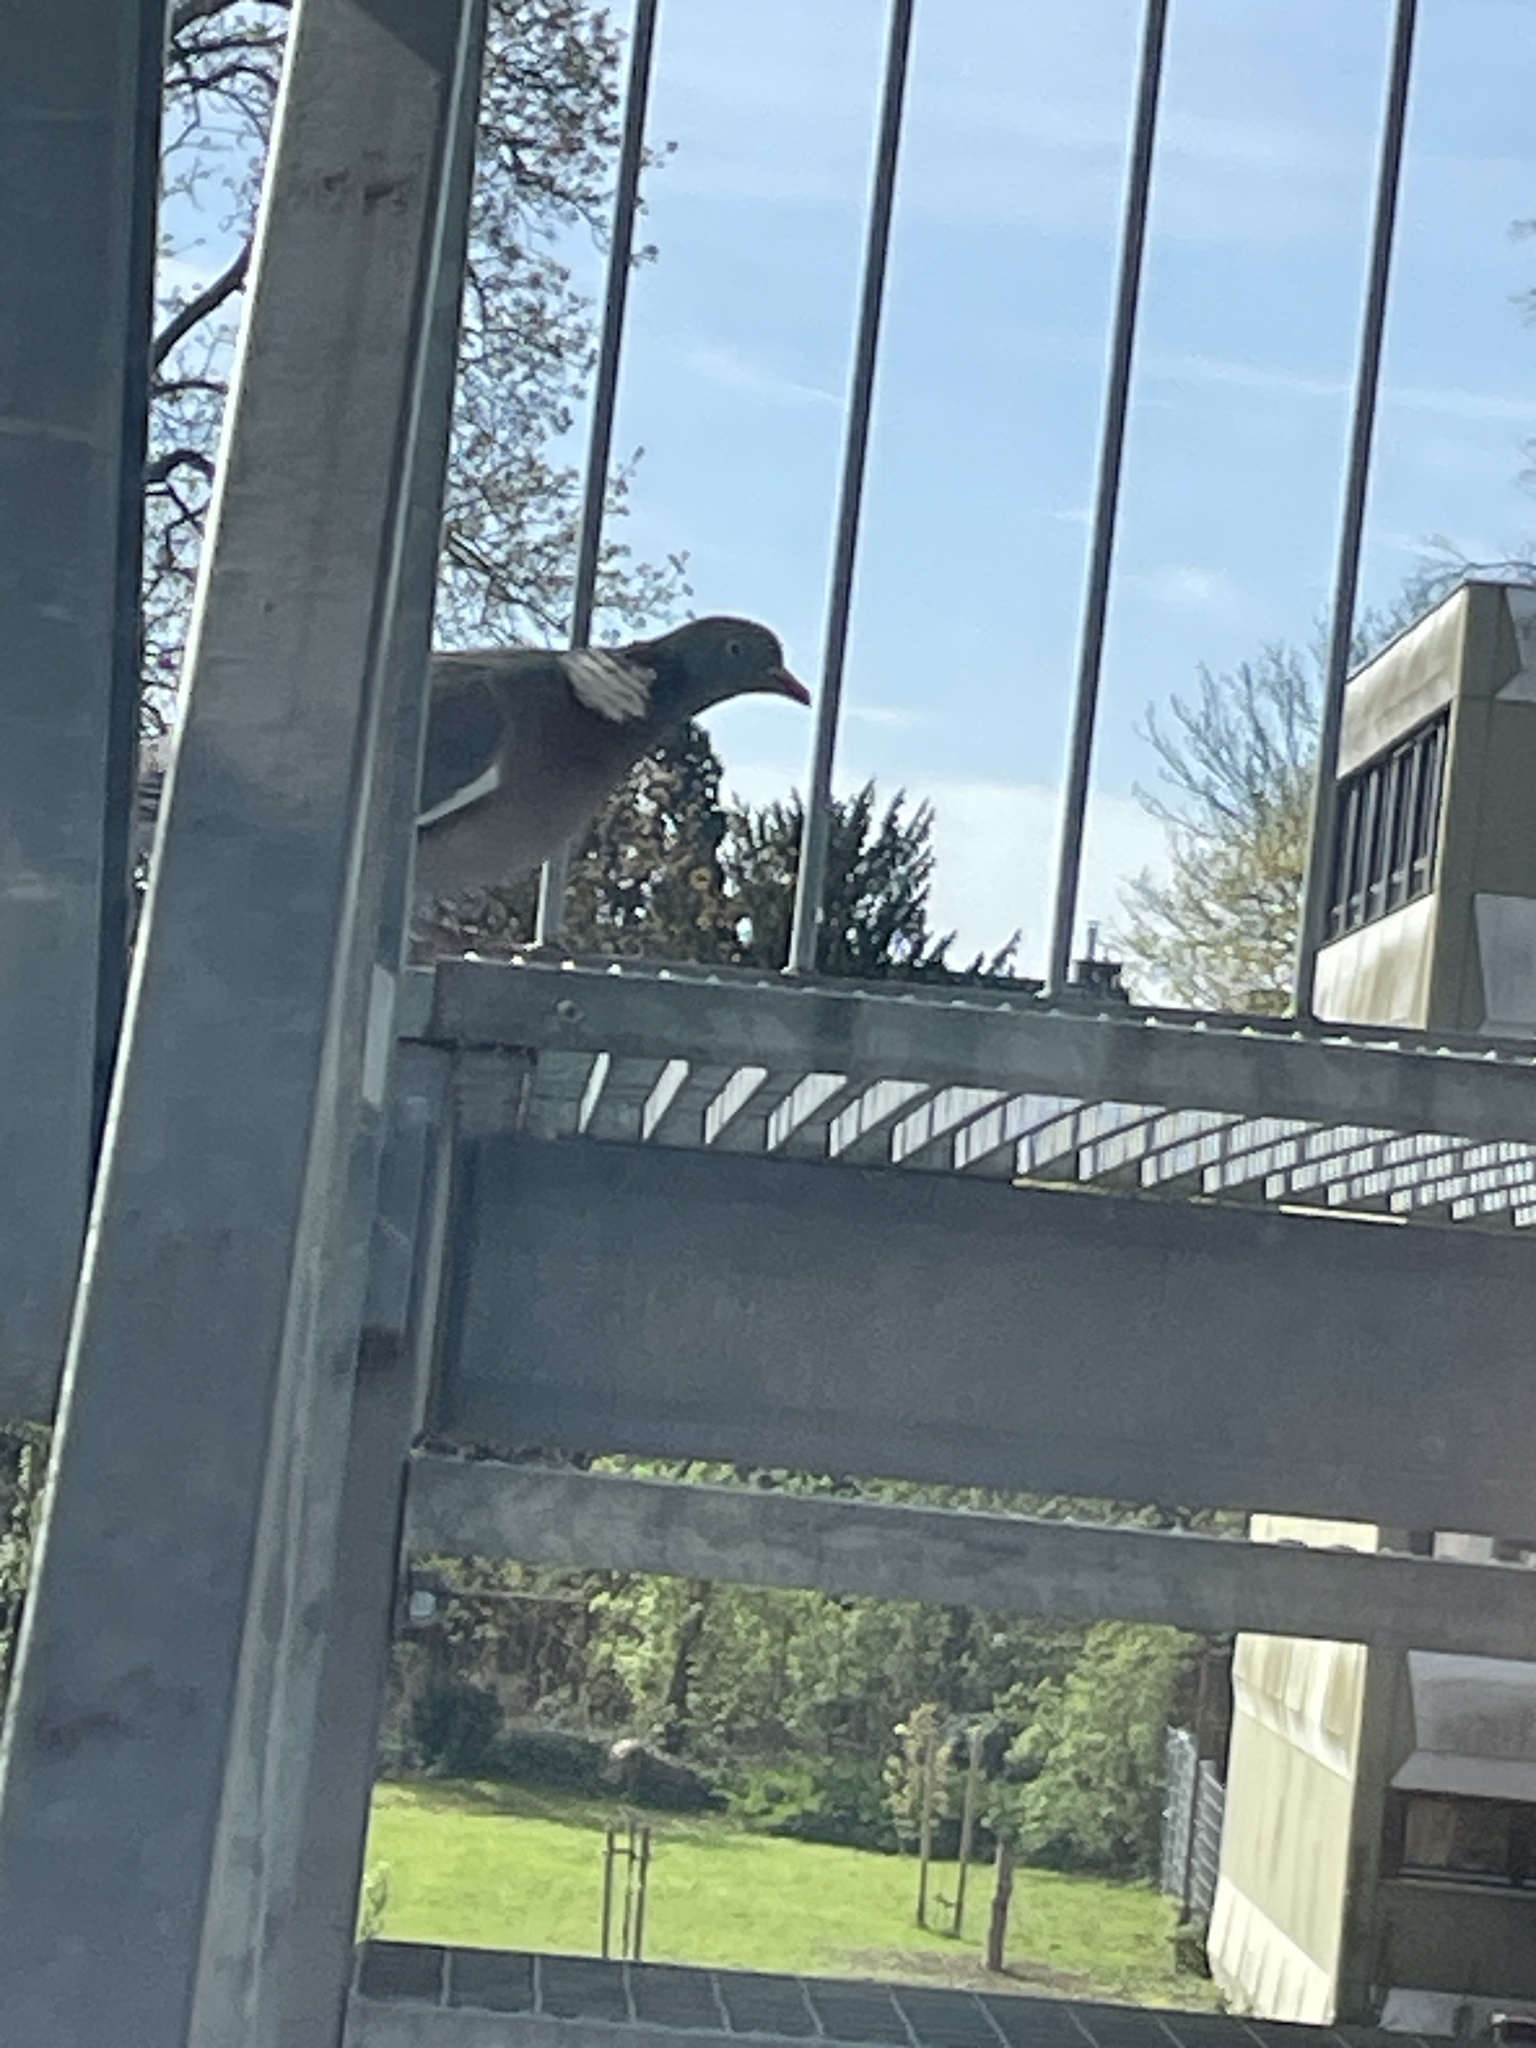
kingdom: Animalia
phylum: Chordata
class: Aves
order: Columbiformes
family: Columbidae
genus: Columba
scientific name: Columba palumbus
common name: Common wood pigeon
